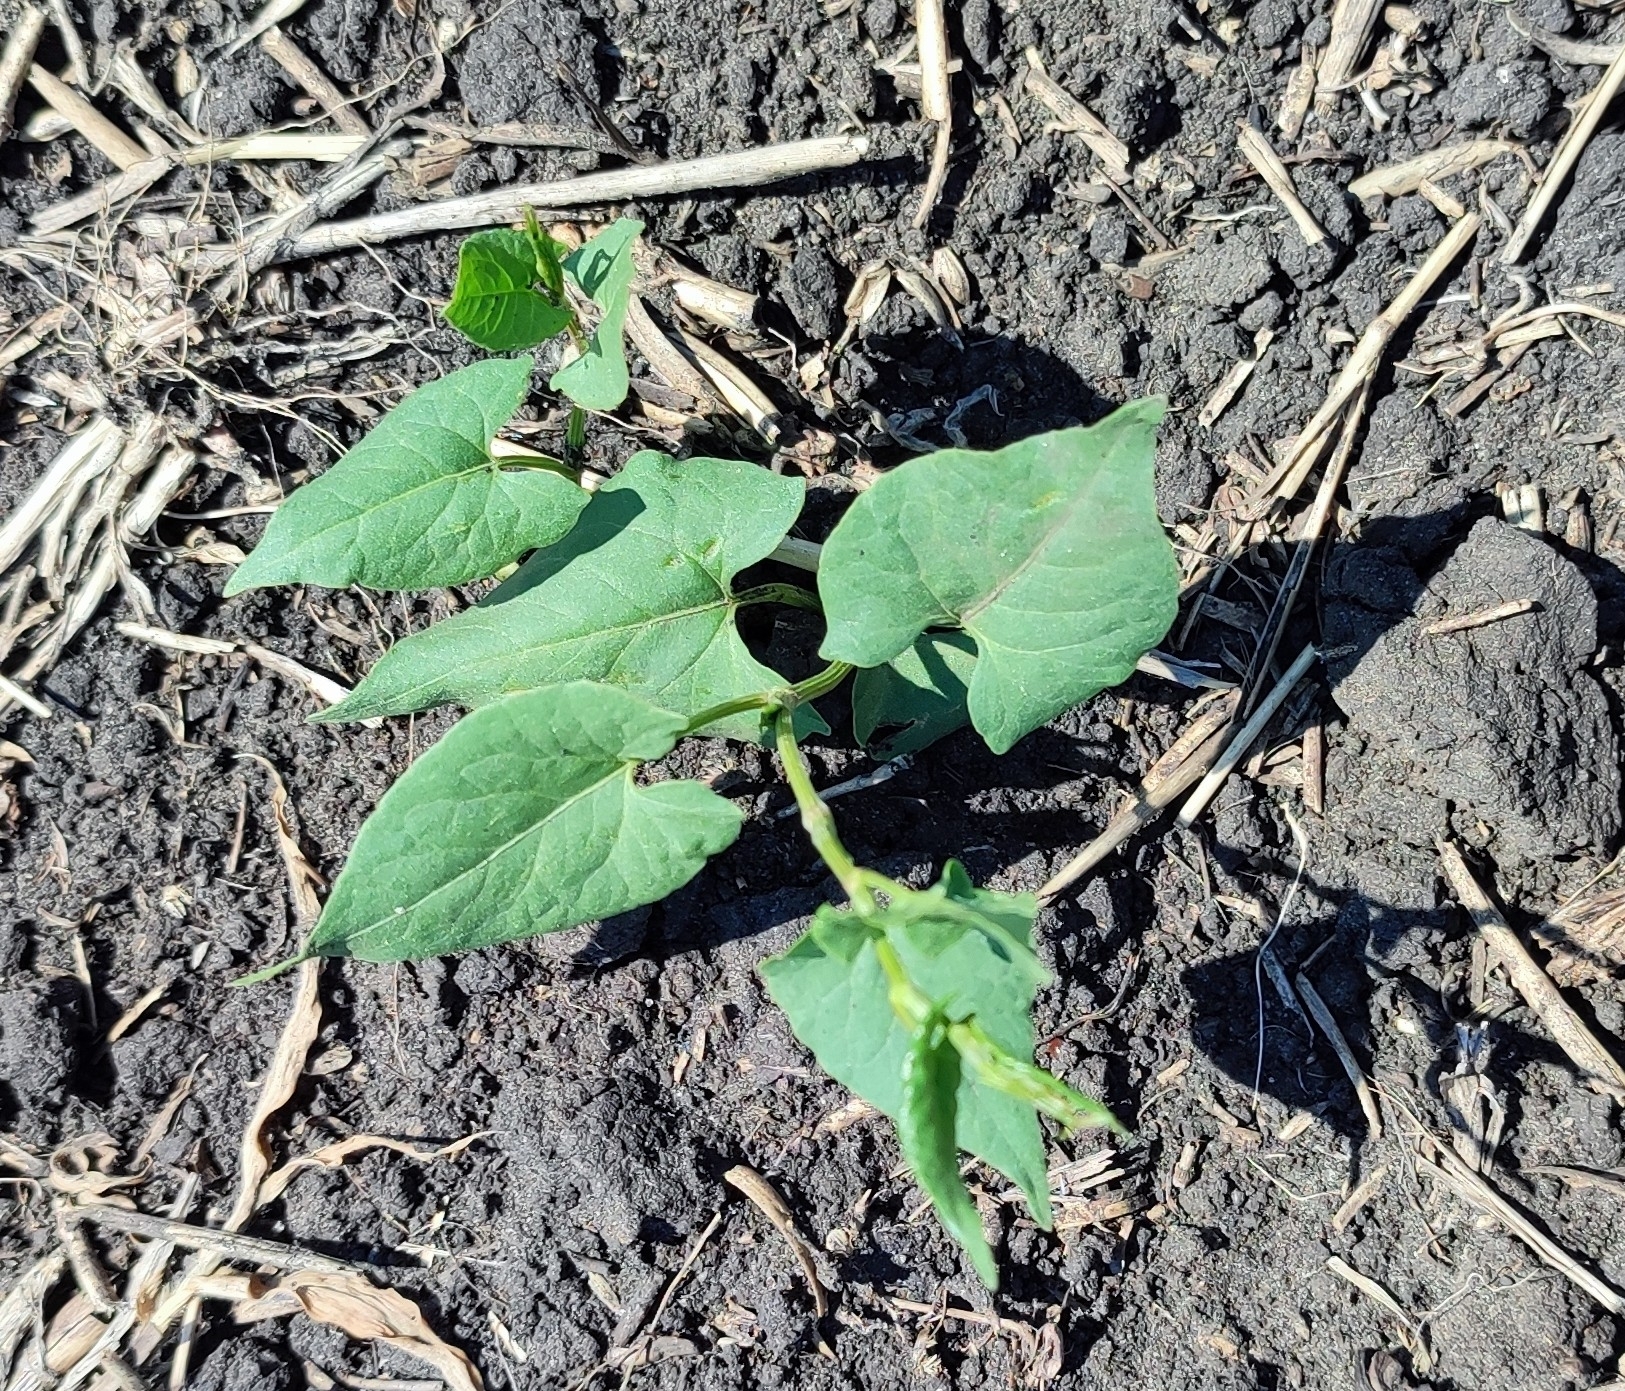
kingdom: Plantae
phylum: Tracheophyta
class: Magnoliopsida
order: Caryophyllales
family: Polygonaceae
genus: Fallopia
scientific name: Fallopia convolvulus
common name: Black bindweed
